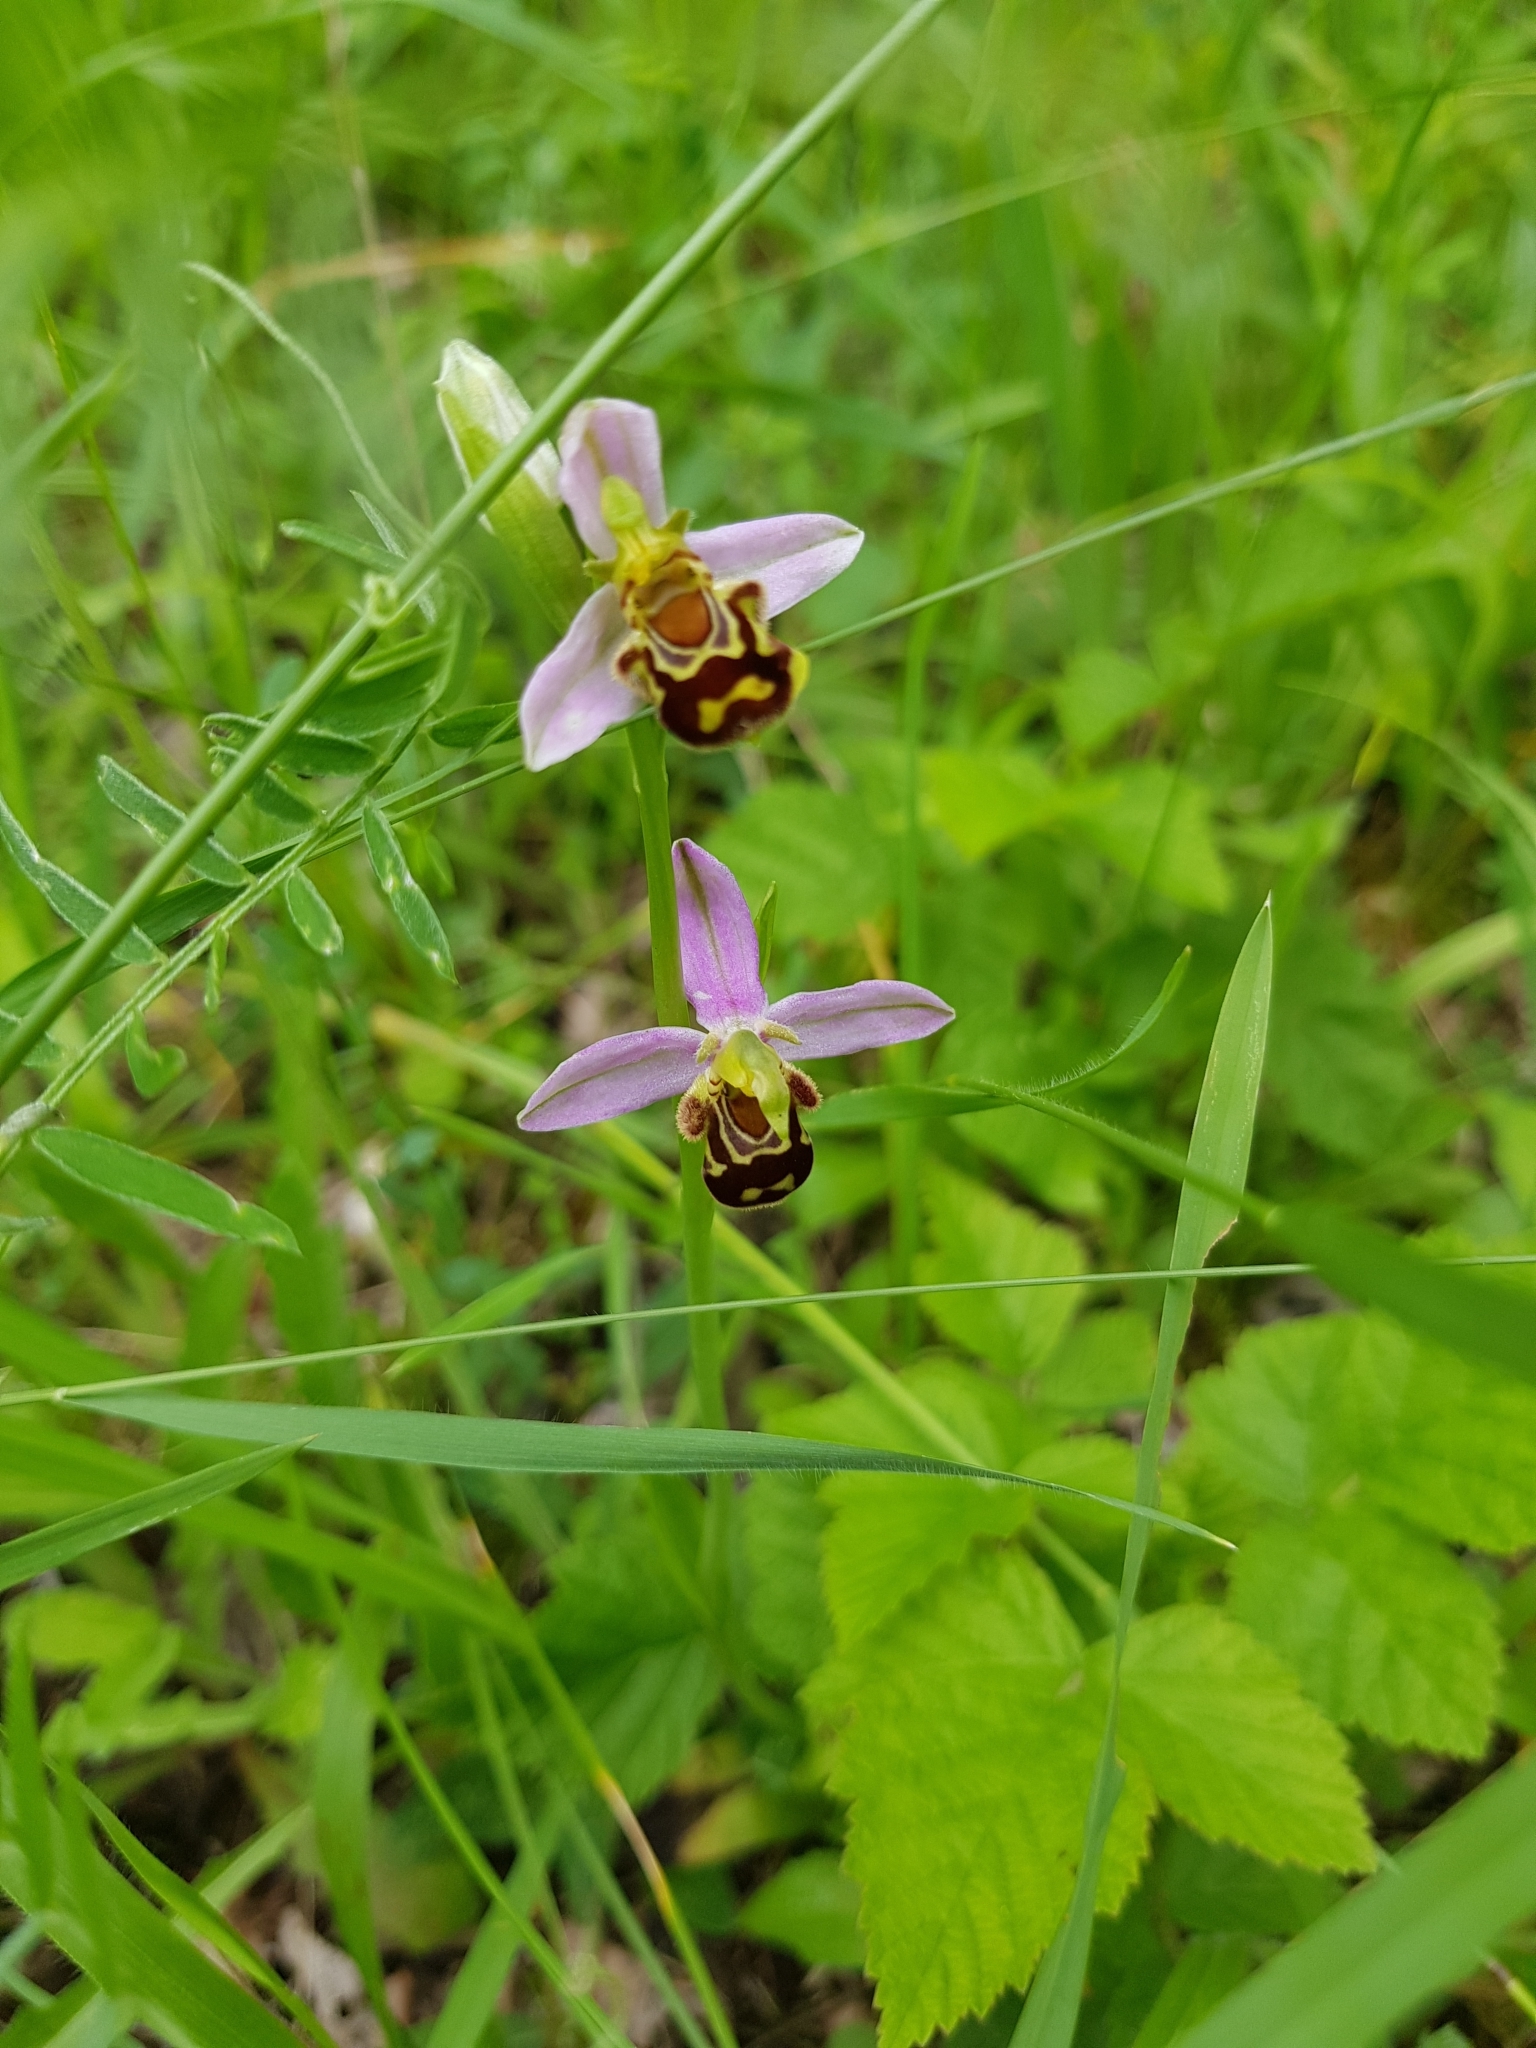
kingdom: Plantae
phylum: Tracheophyta
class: Liliopsida
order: Asparagales
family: Orchidaceae
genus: Ophrys
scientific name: Ophrys apifera
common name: Bee orchid
